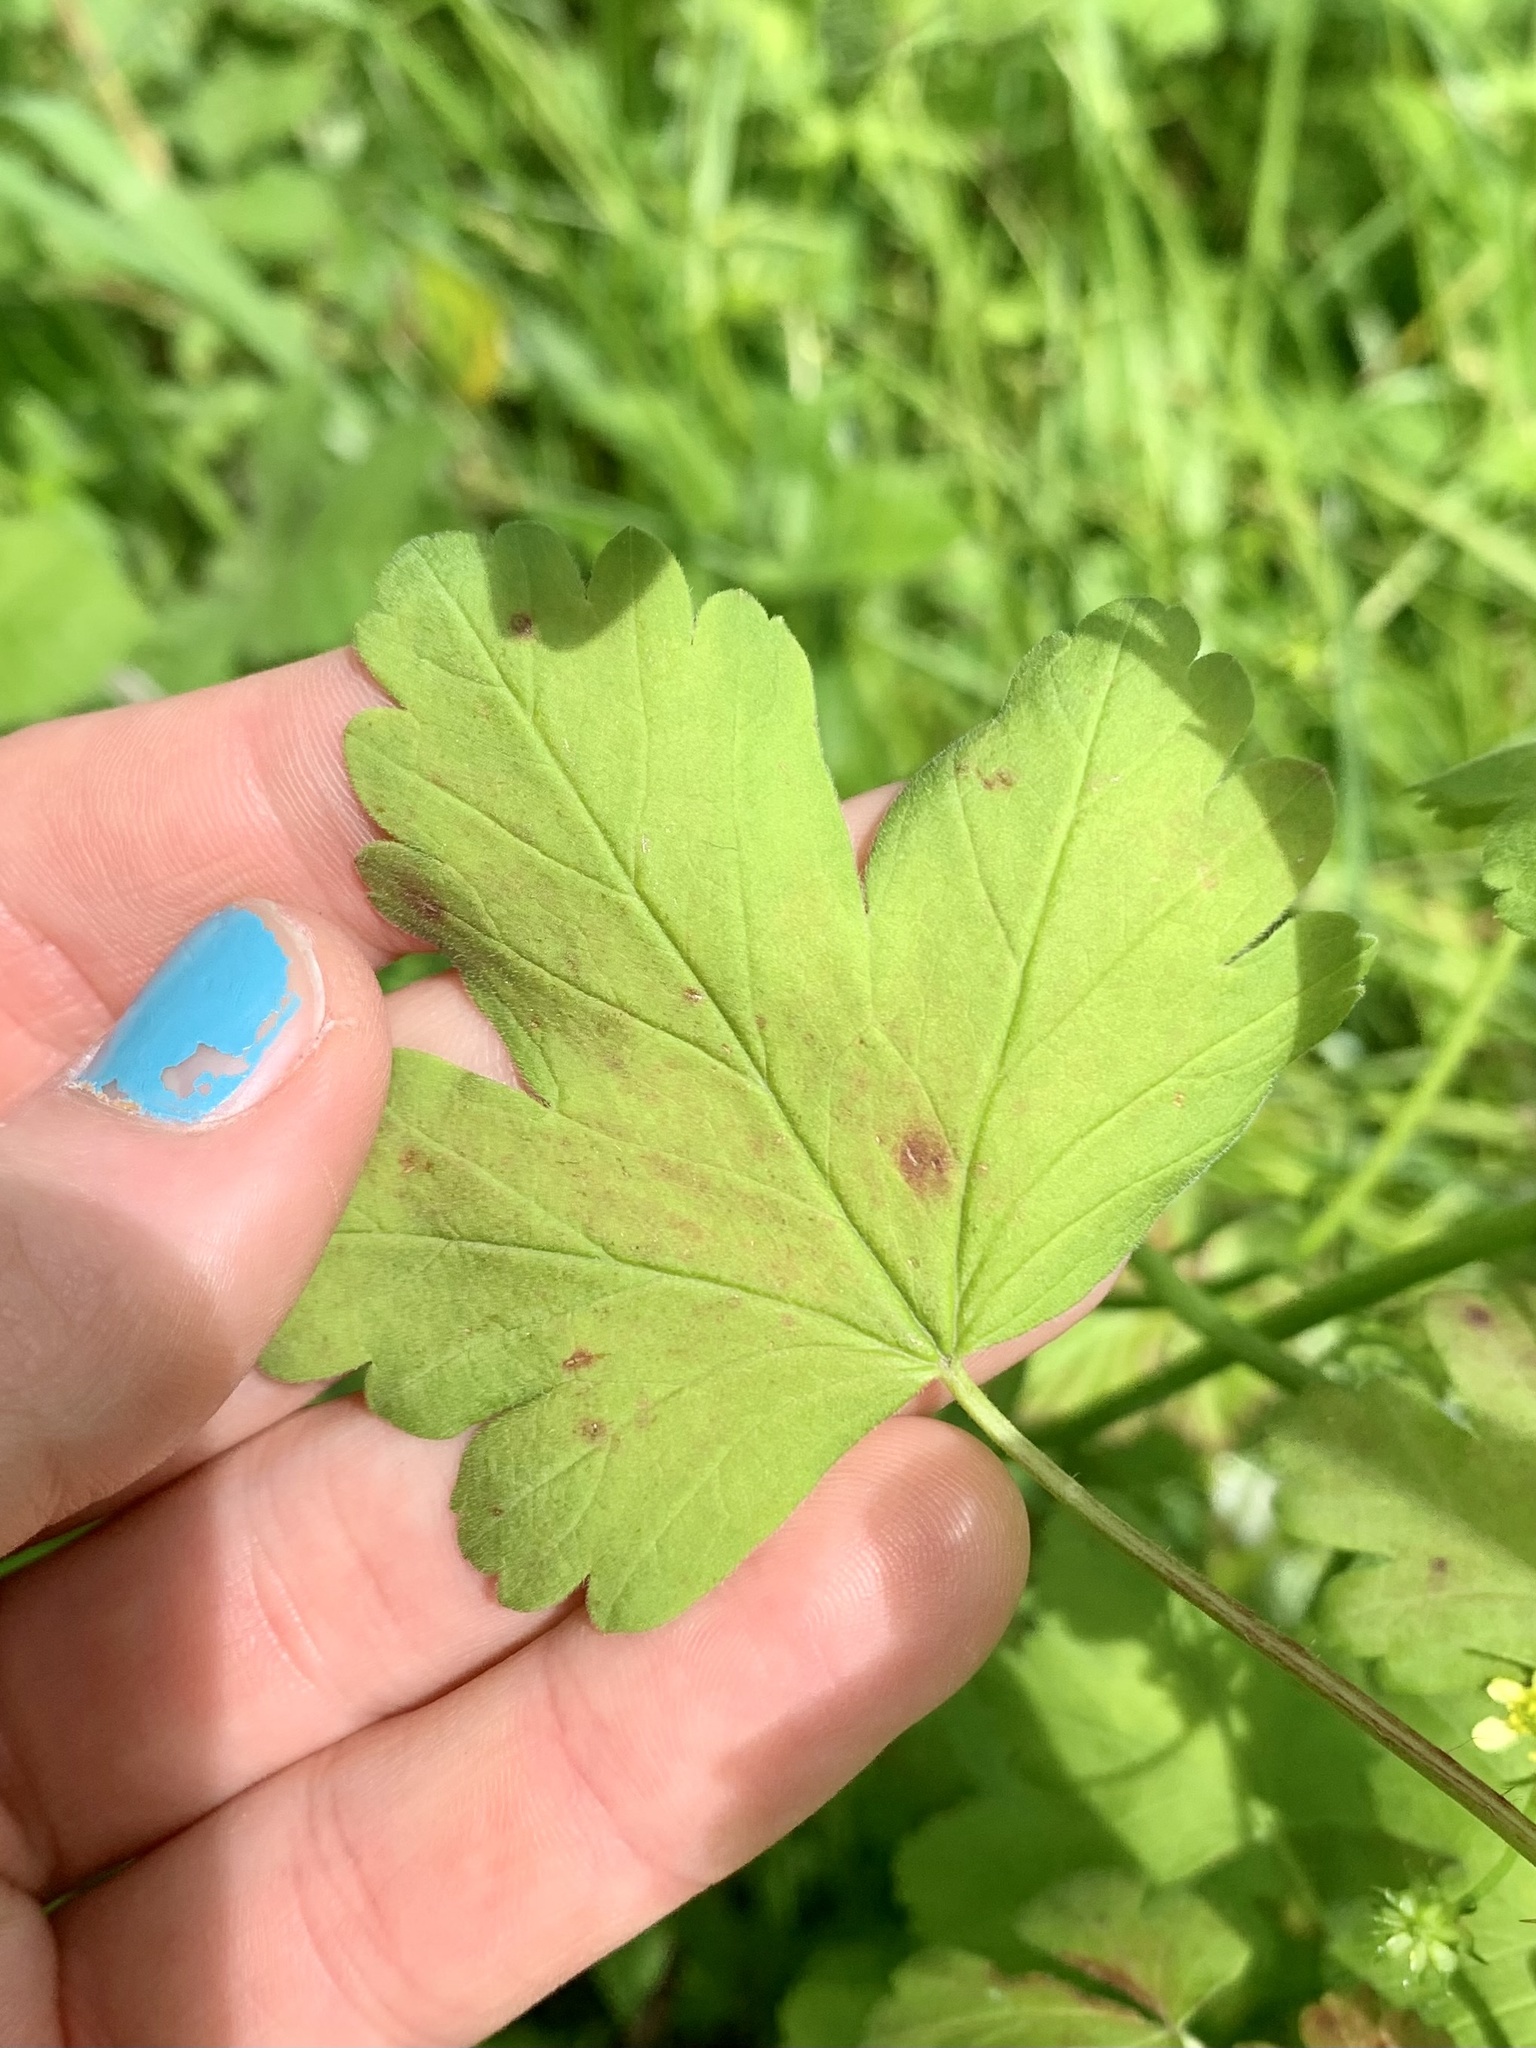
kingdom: Plantae
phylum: Tracheophyta
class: Magnoliopsida
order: Saxifragales
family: Grossulariaceae
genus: Ribes
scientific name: Ribes divaricatum
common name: Wild black gooseberry
